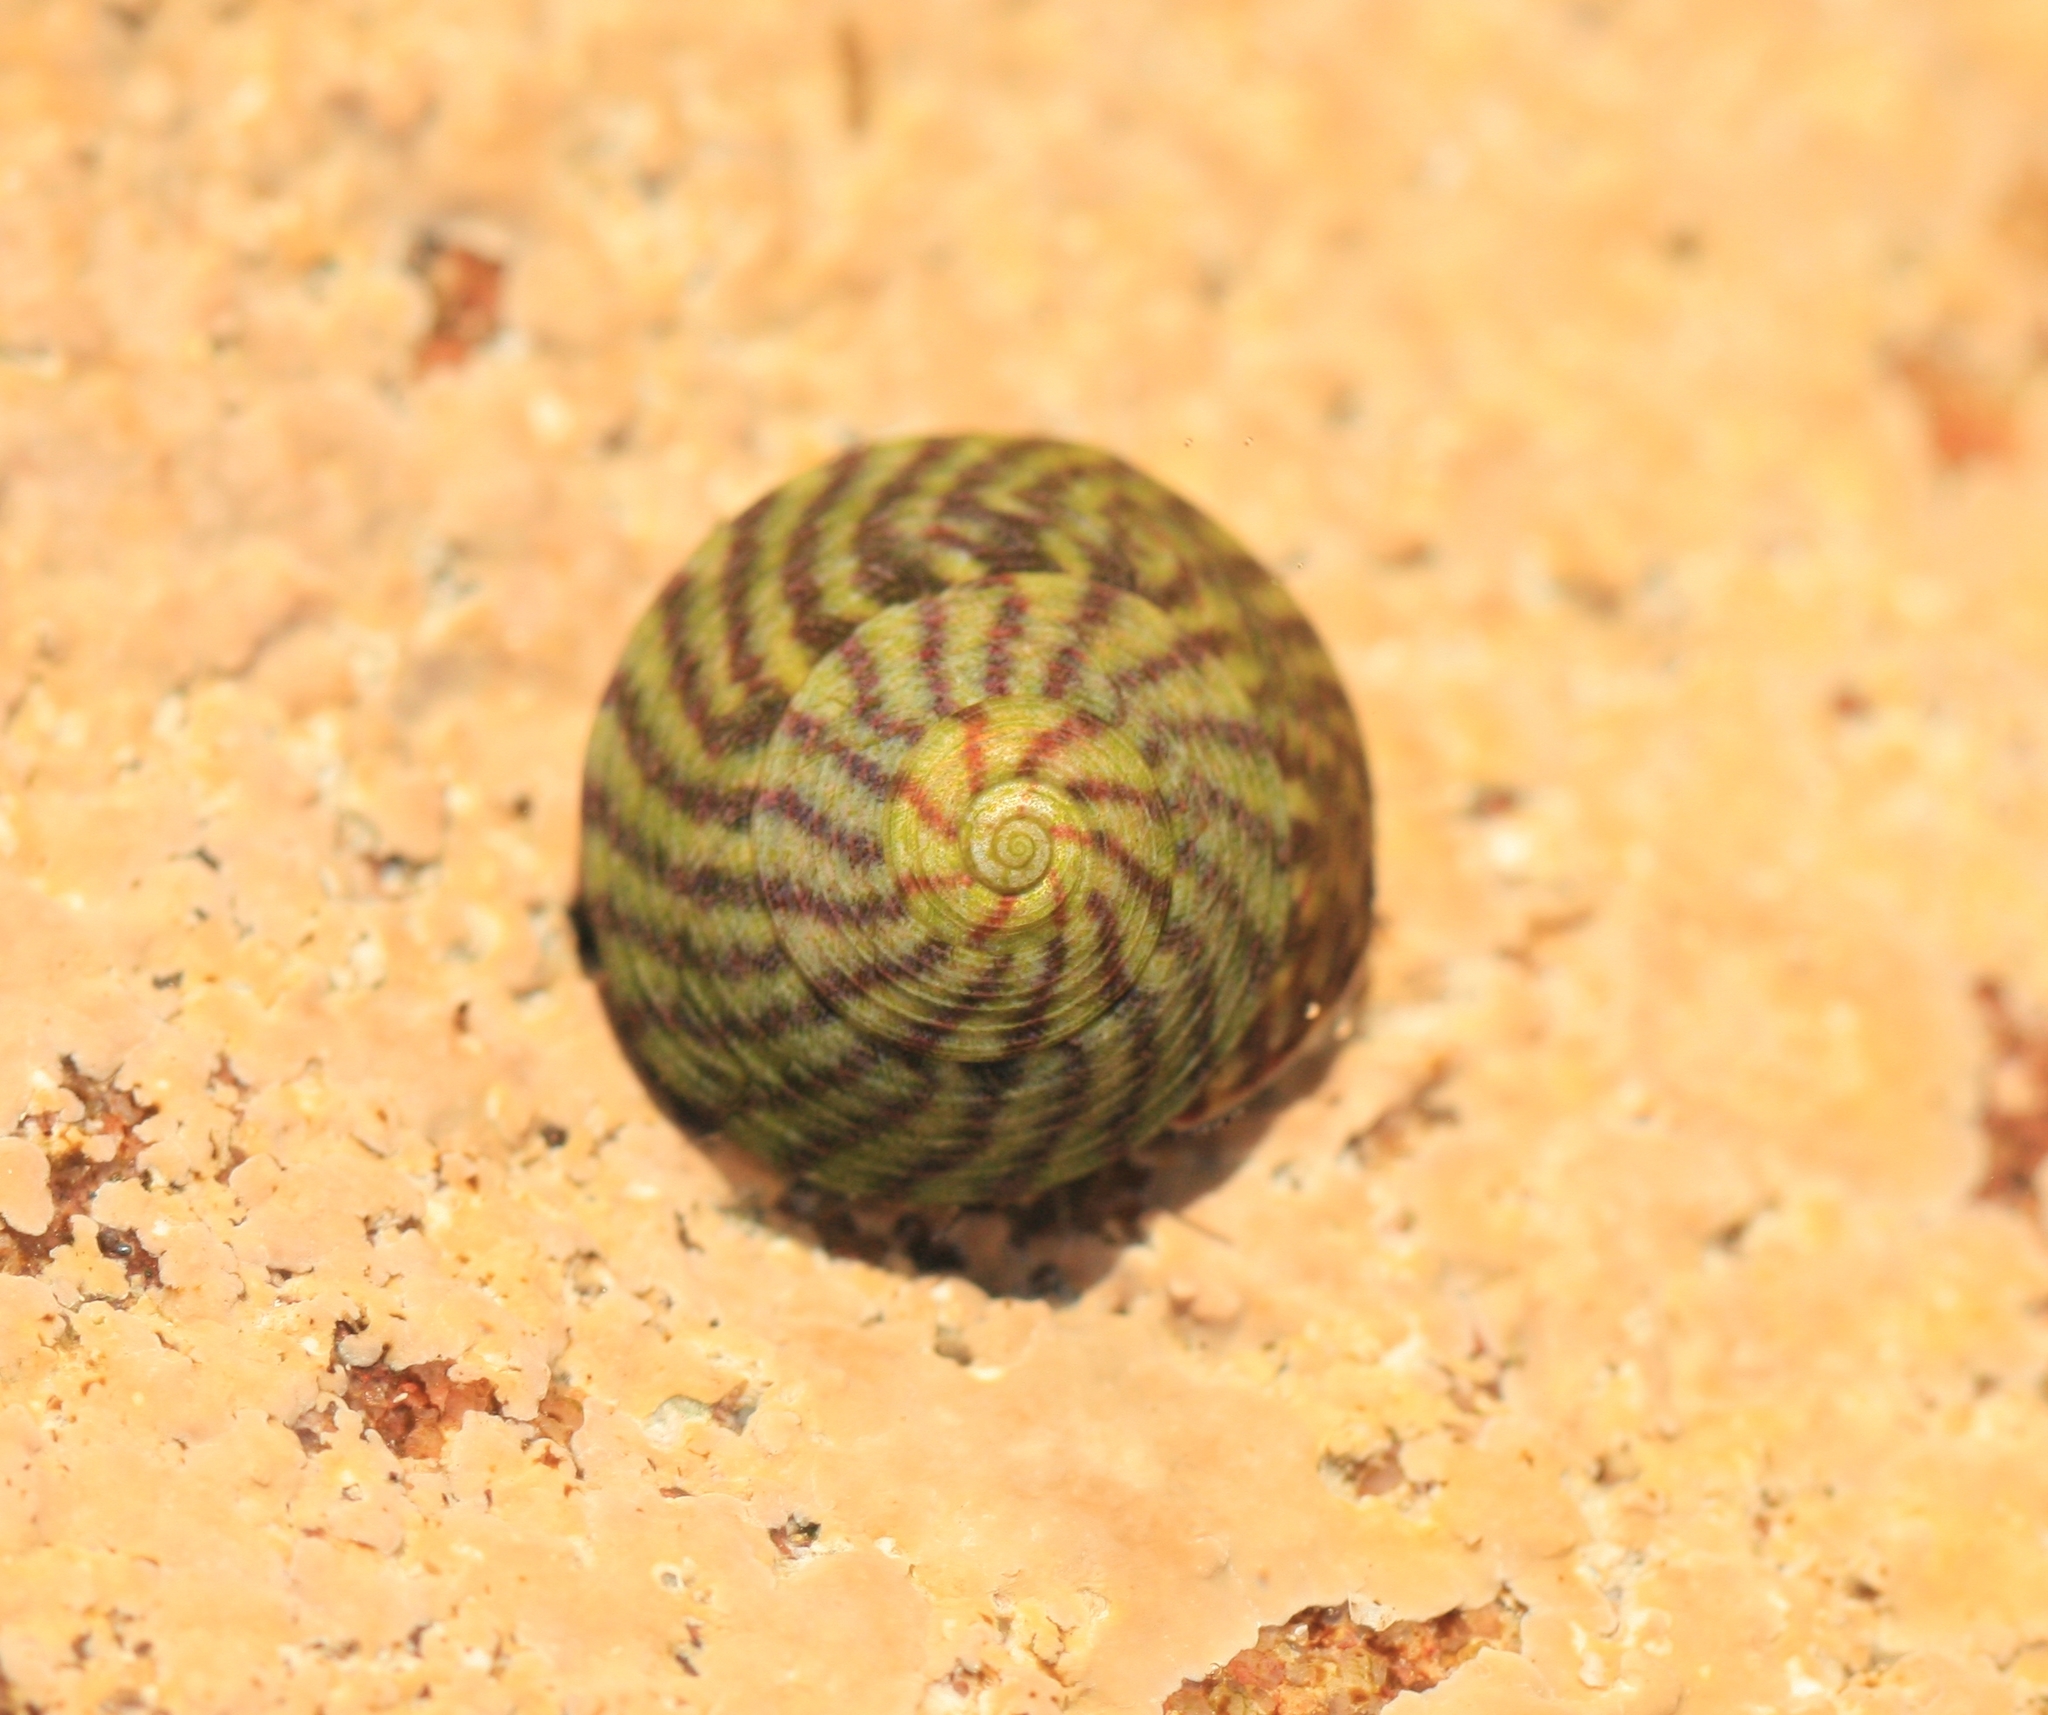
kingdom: Animalia
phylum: Mollusca
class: Gastropoda
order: Trochida
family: Trochidae
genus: Steromphala
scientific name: Steromphala umbilicalis
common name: Flat top shell
